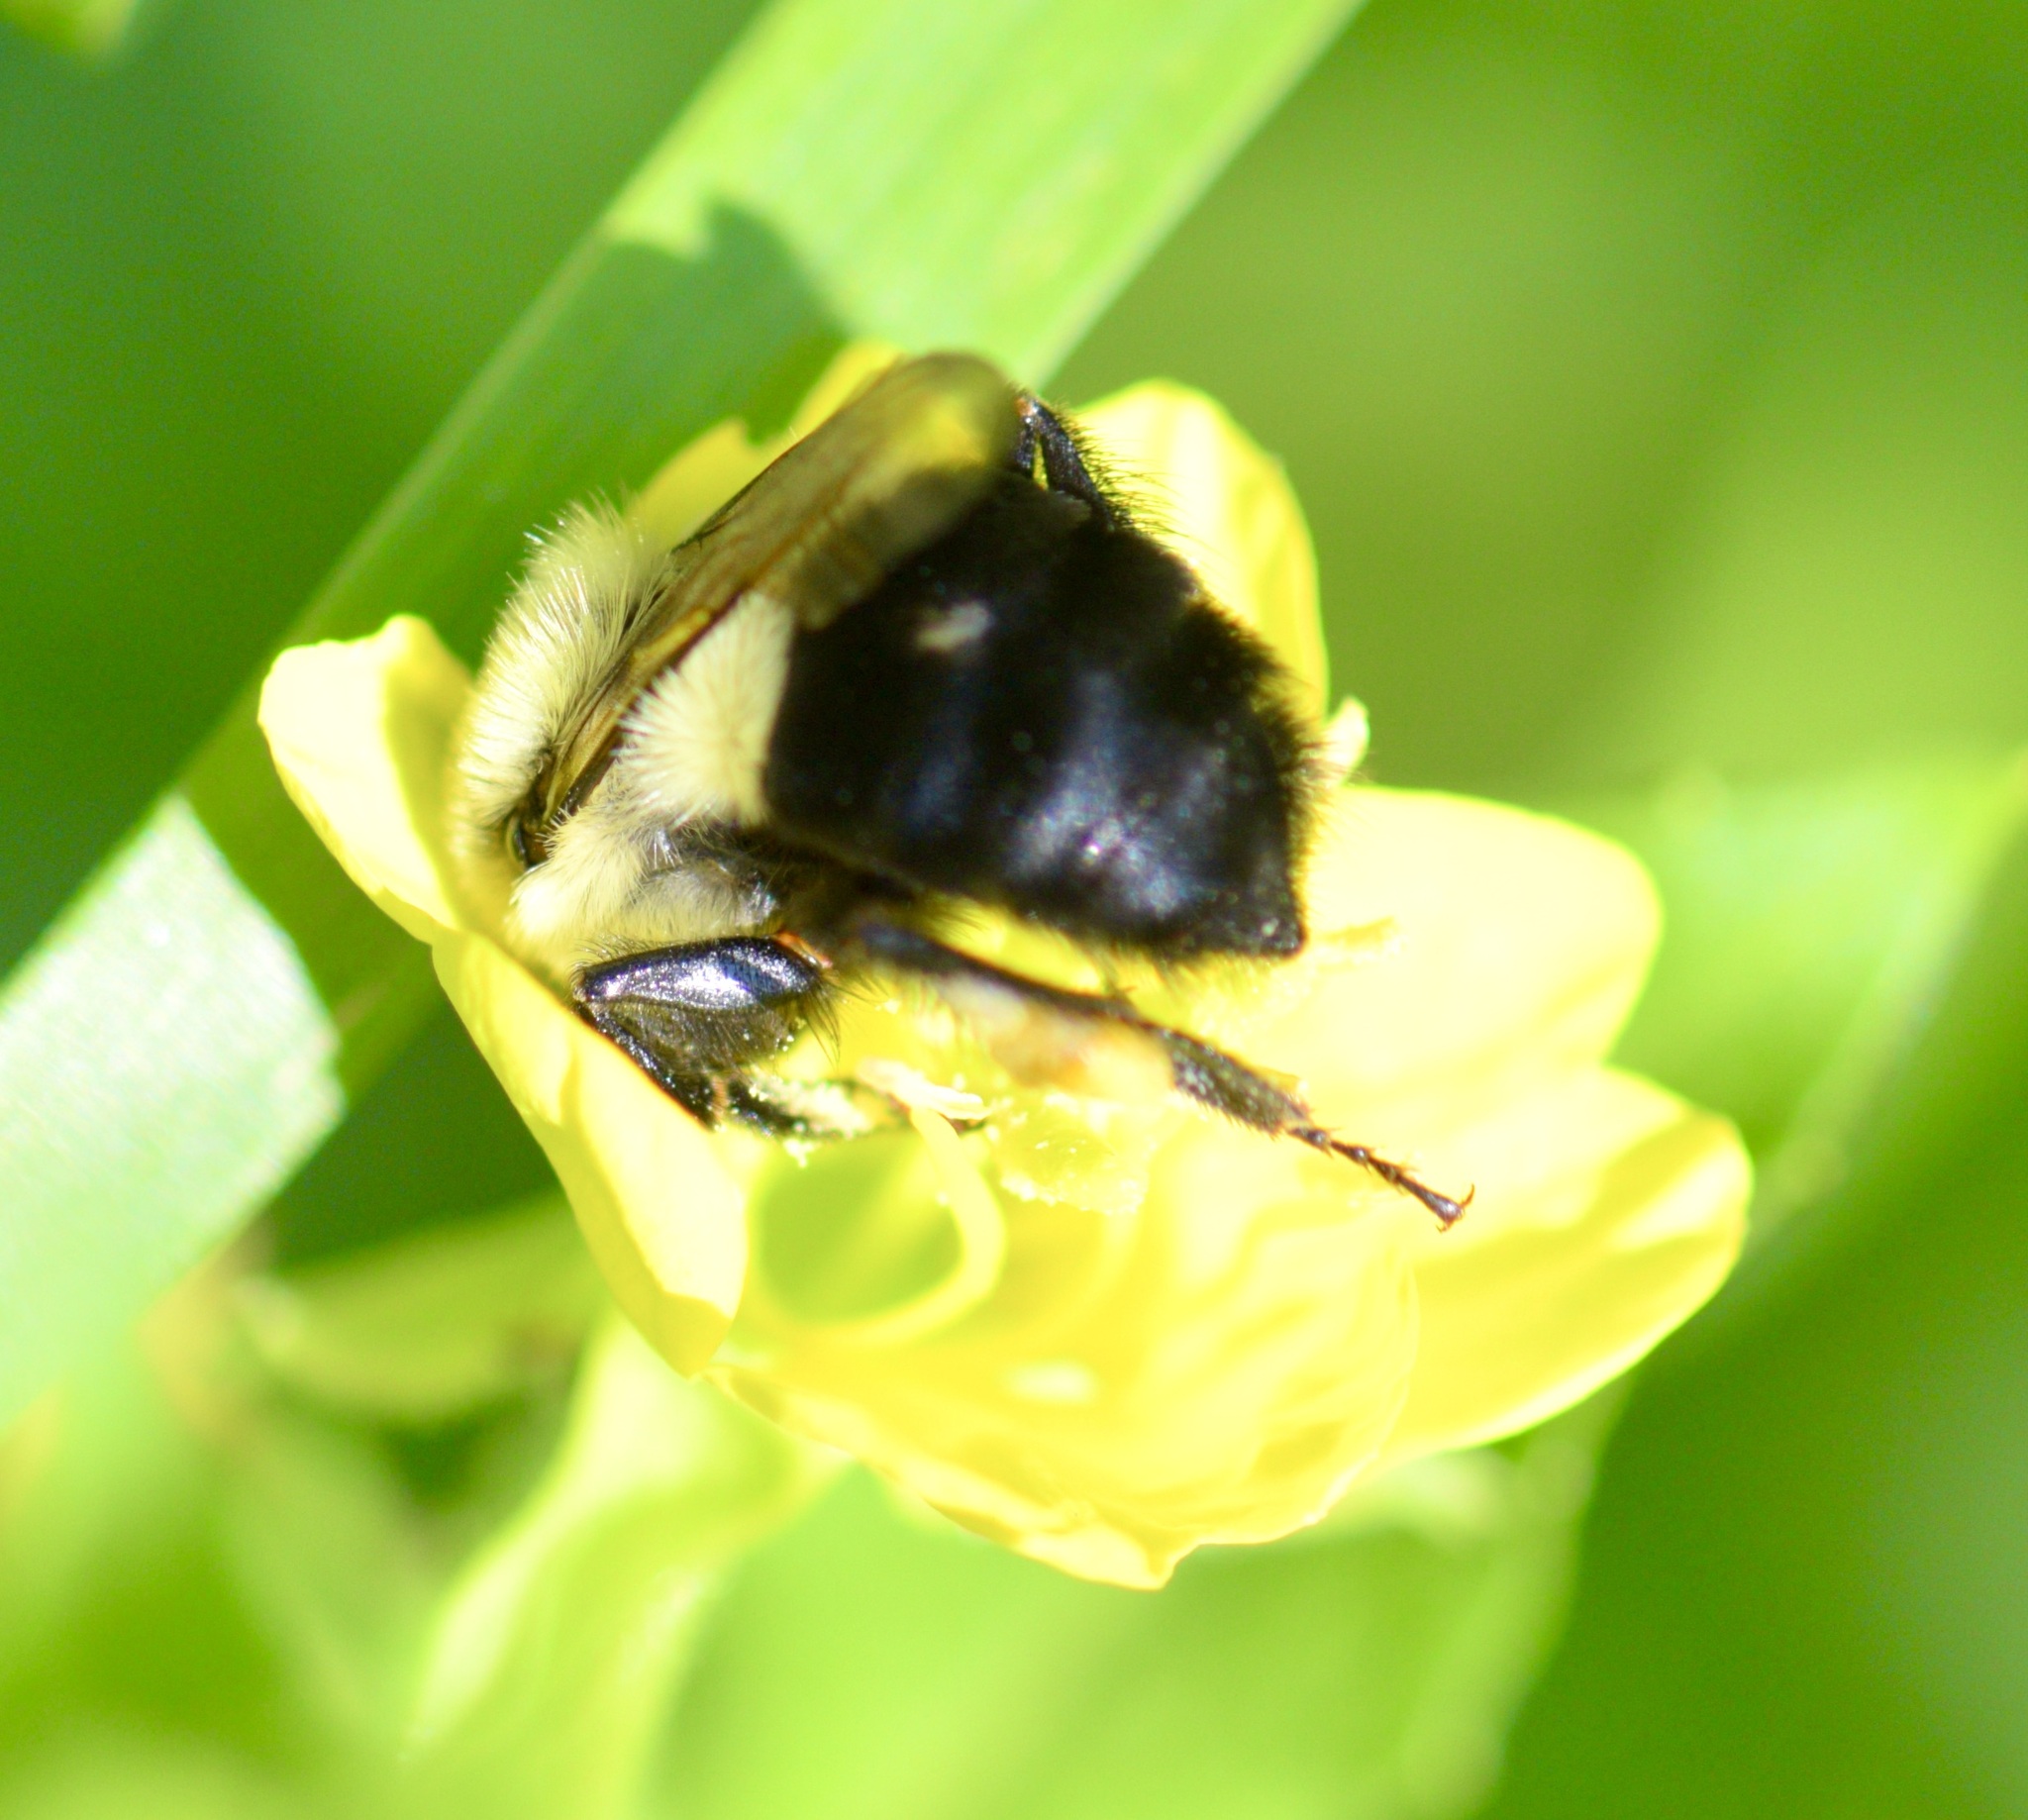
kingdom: Animalia
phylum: Arthropoda
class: Insecta
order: Hymenoptera
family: Apidae
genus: Bombus
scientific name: Bombus impatiens
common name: Common eastern bumble bee
